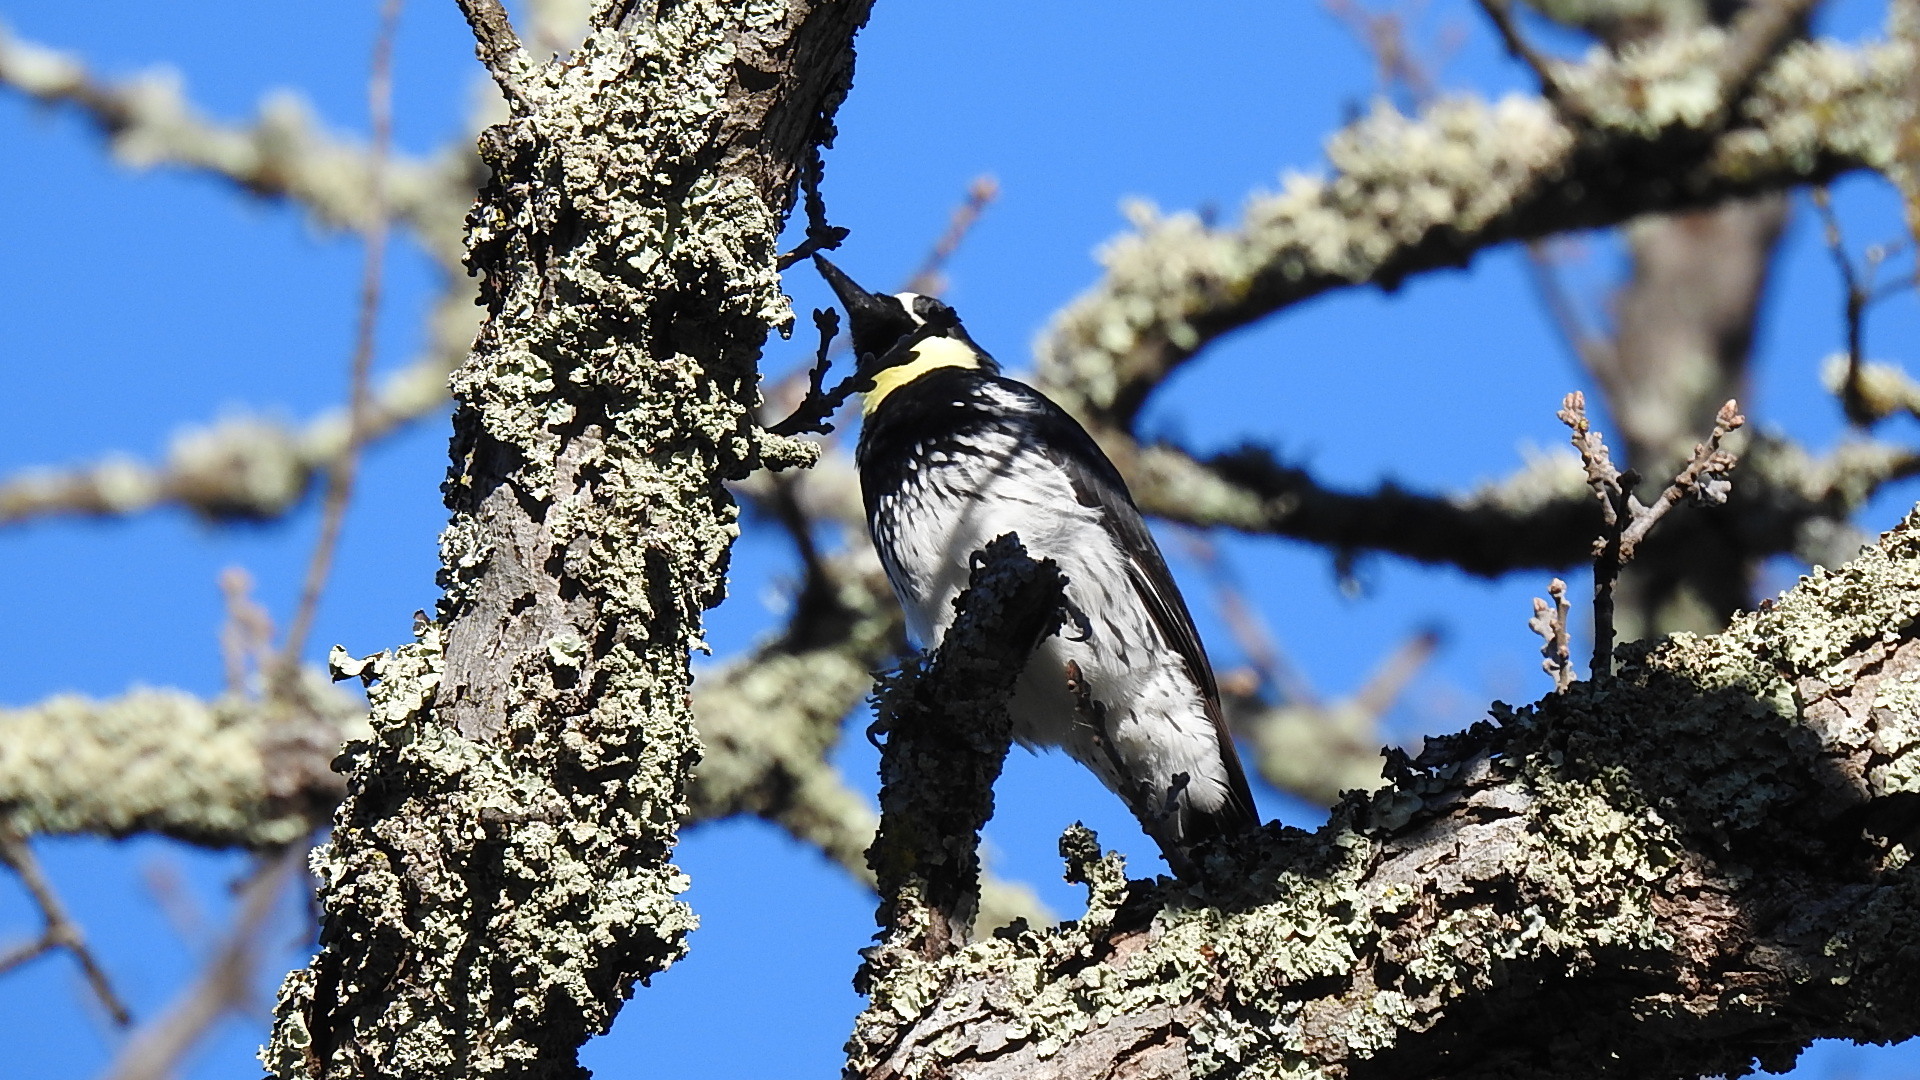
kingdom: Animalia
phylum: Chordata
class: Aves
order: Piciformes
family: Picidae
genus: Melanerpes
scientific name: Melanerpes formicivorus
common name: Acorn woodpecker
